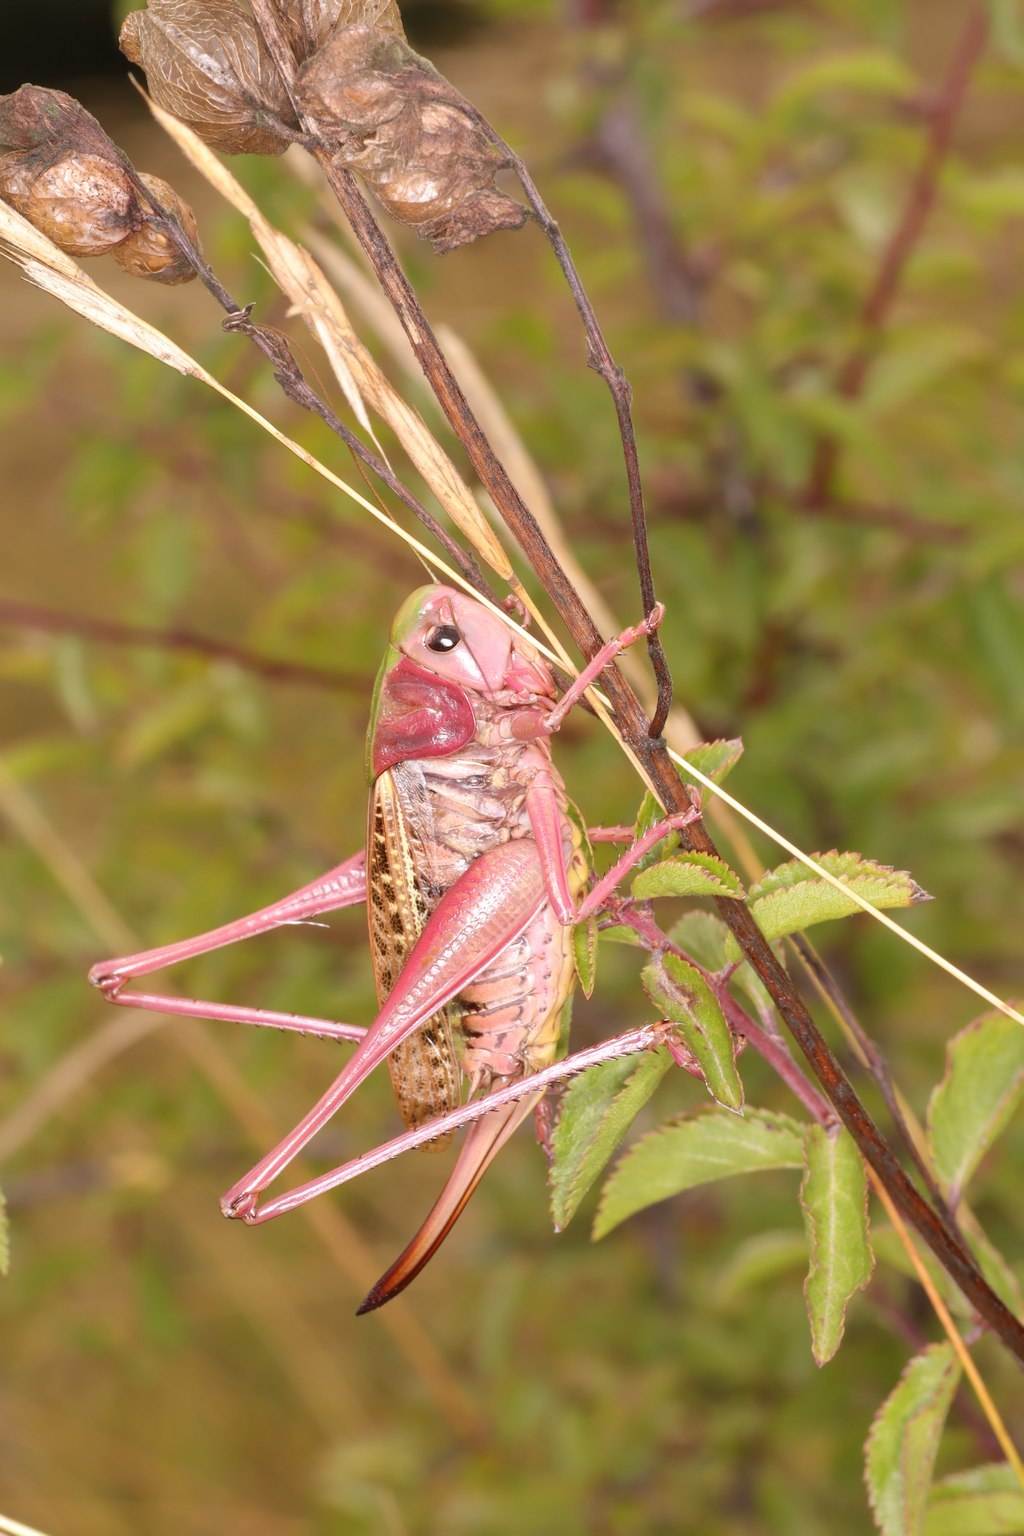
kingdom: Animalia
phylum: Arthropoda
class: Insecta
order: Orthoptera
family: Tettigoniidae
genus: Decticus
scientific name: Decticus verrucivorus
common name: Wart-biter
